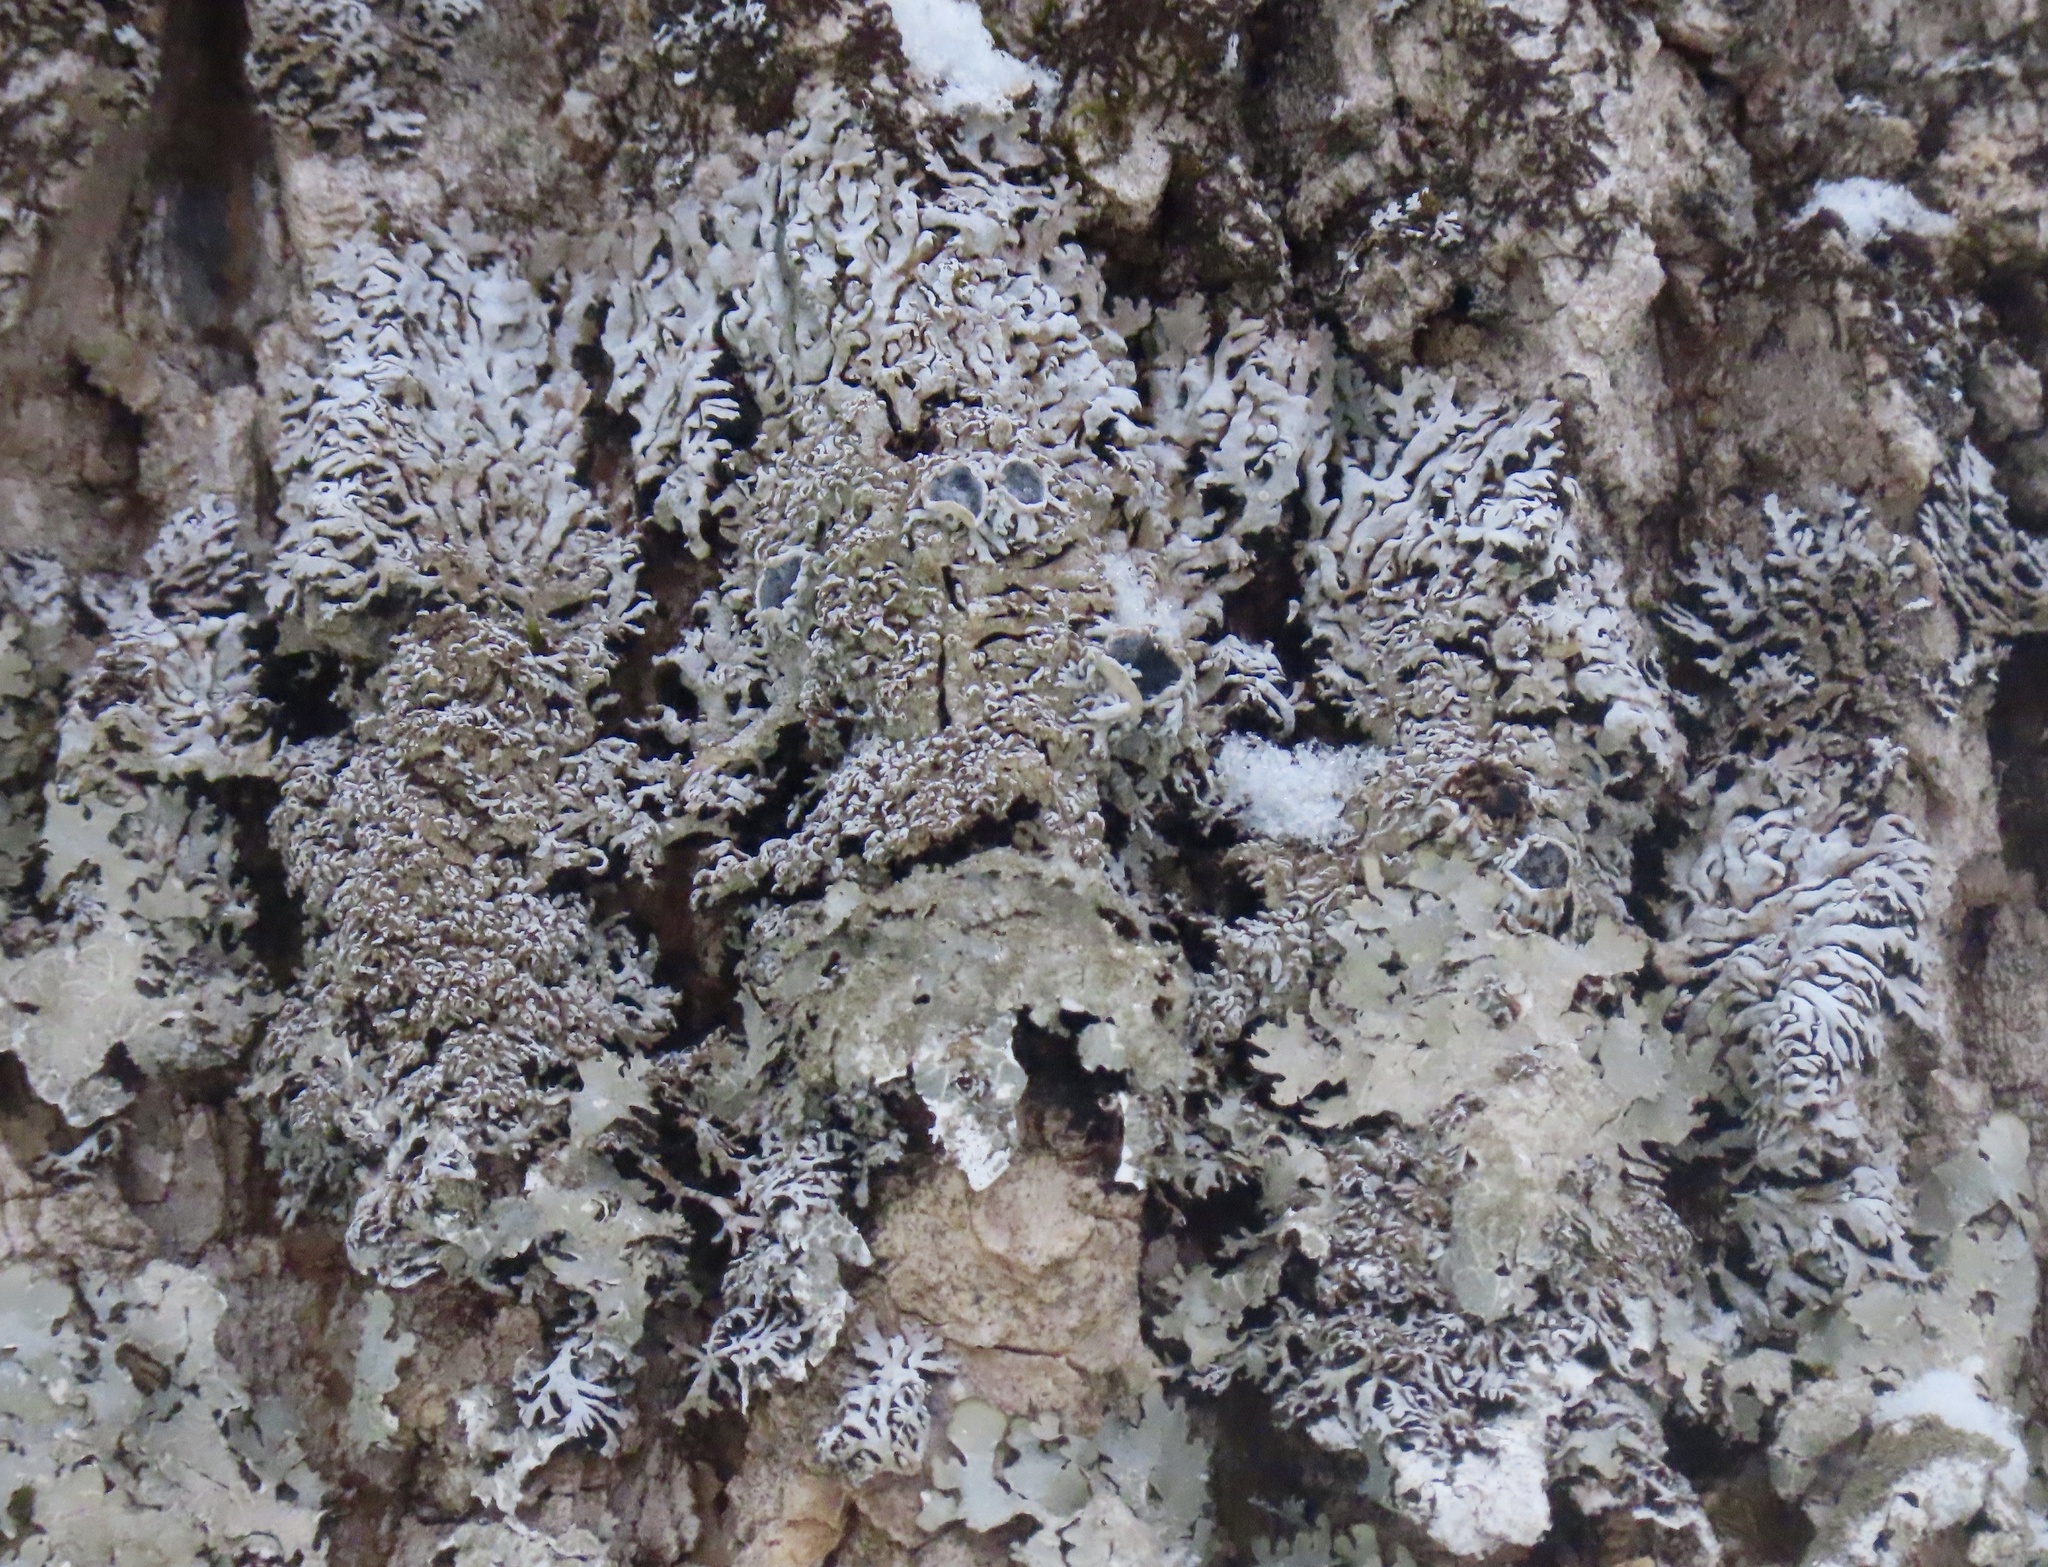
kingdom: Fungi
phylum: Ascomycota
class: Lecanoromycetes
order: Caliciales
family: Physciaceae
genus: Physconia
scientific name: Physconia subpallida
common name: Pale-belly frost lichen
